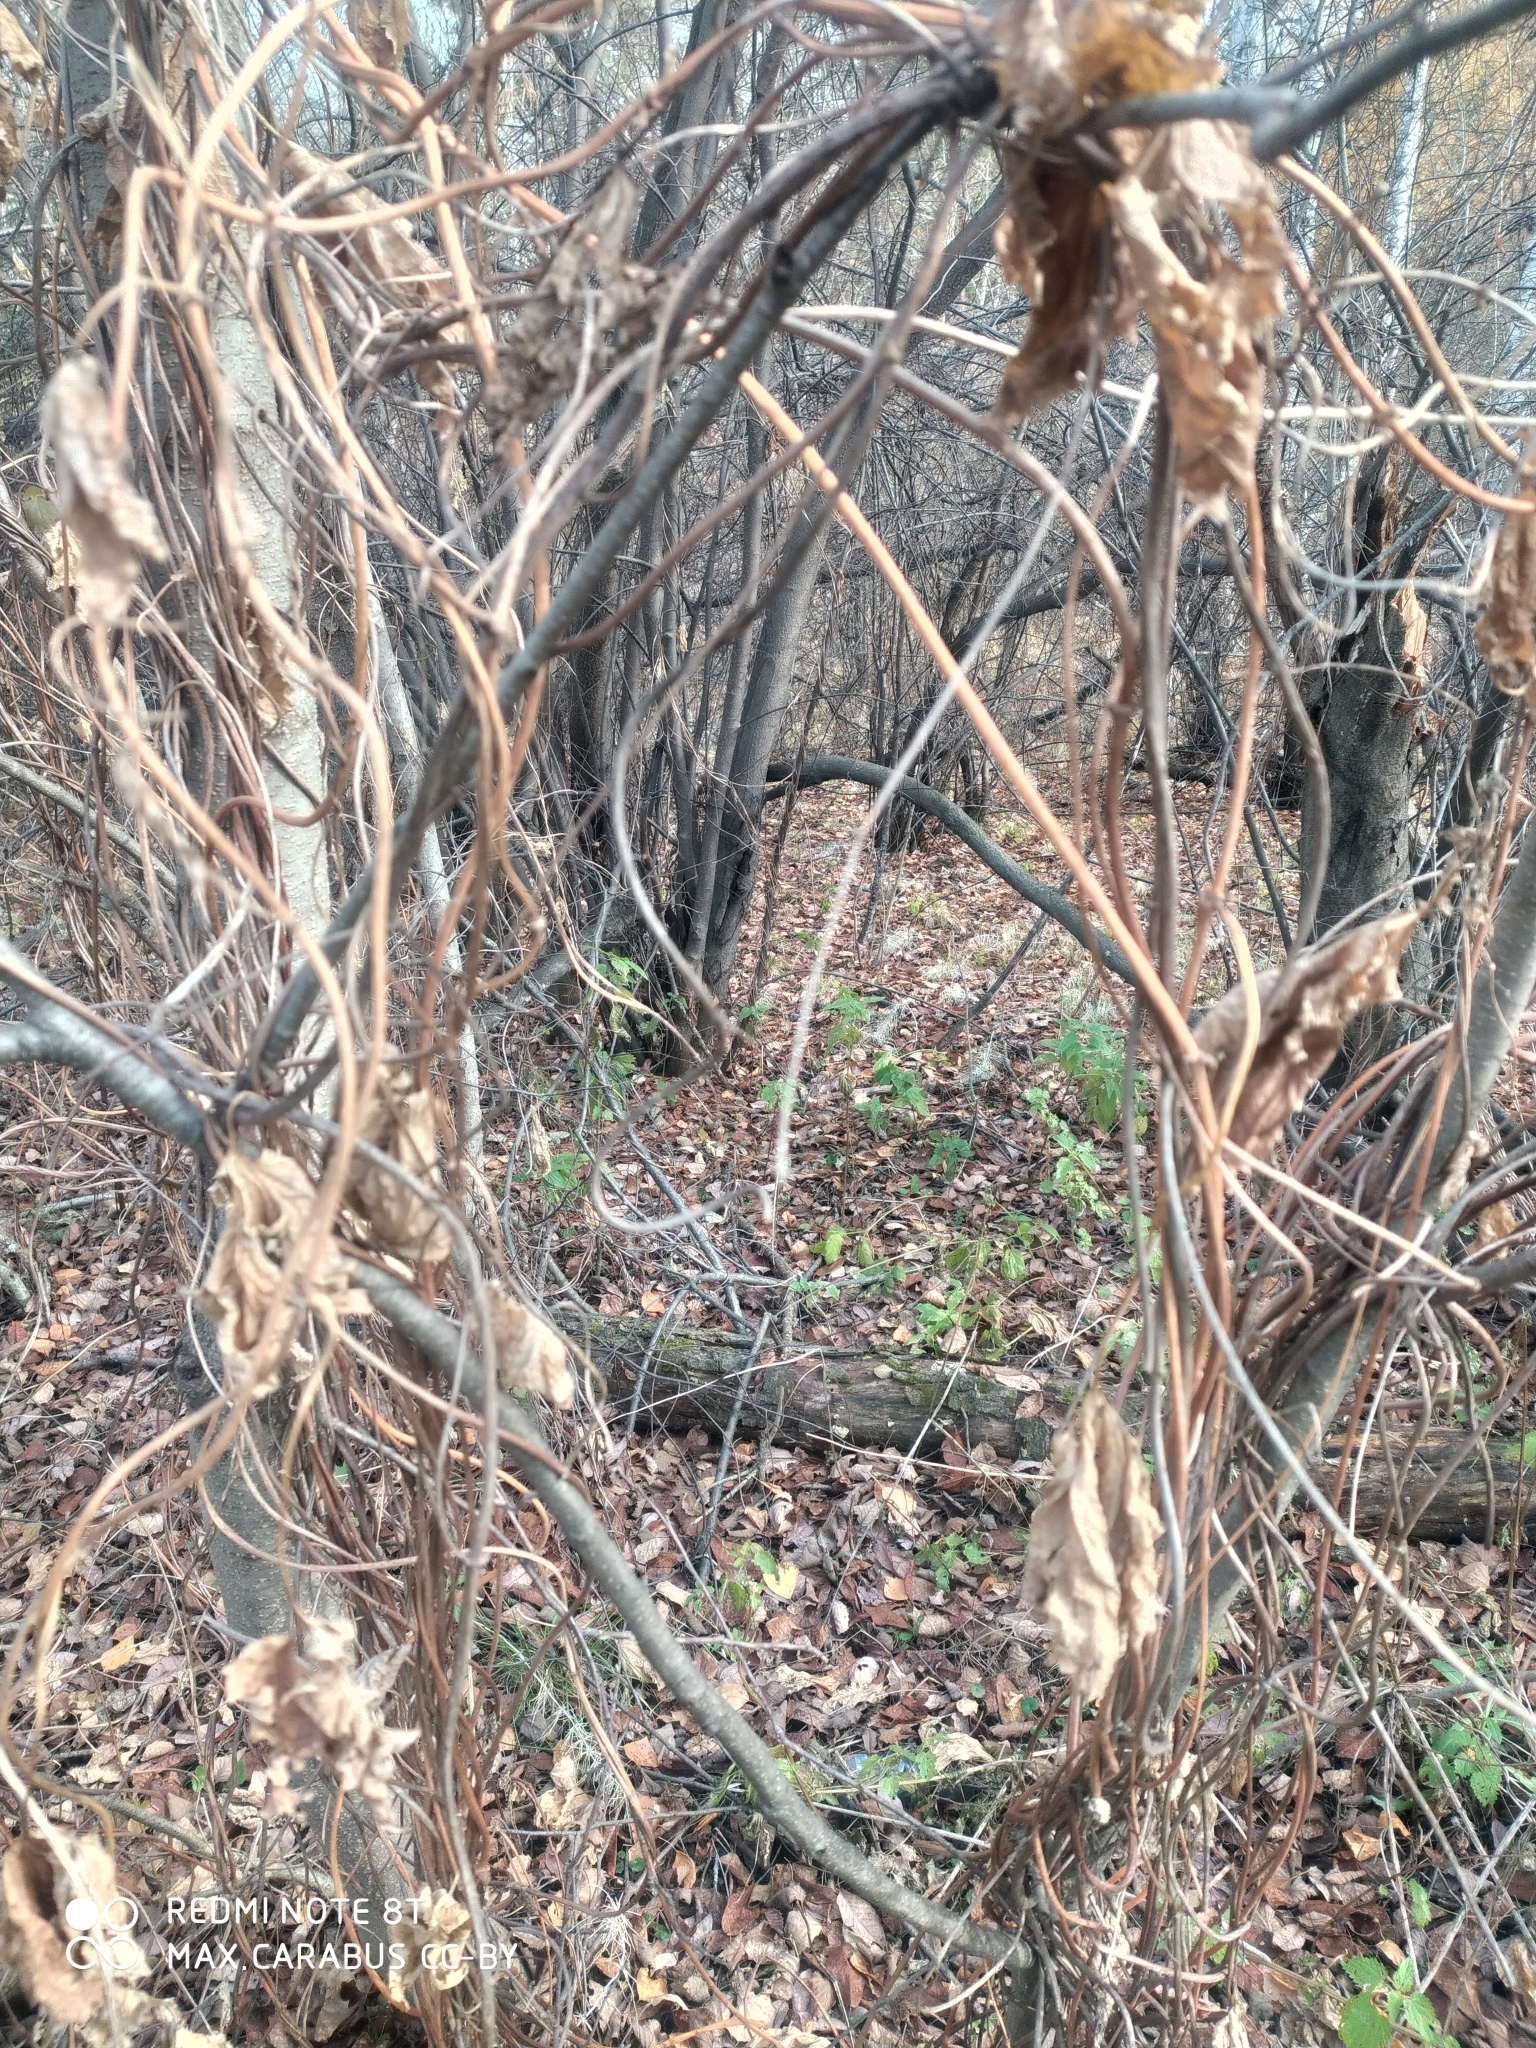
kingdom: Plantae
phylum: Tracheophyta
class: Magnoliopsida
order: Rosales
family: Cannabaceae
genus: Humulus
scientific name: Humulus lupulus
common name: Hop
